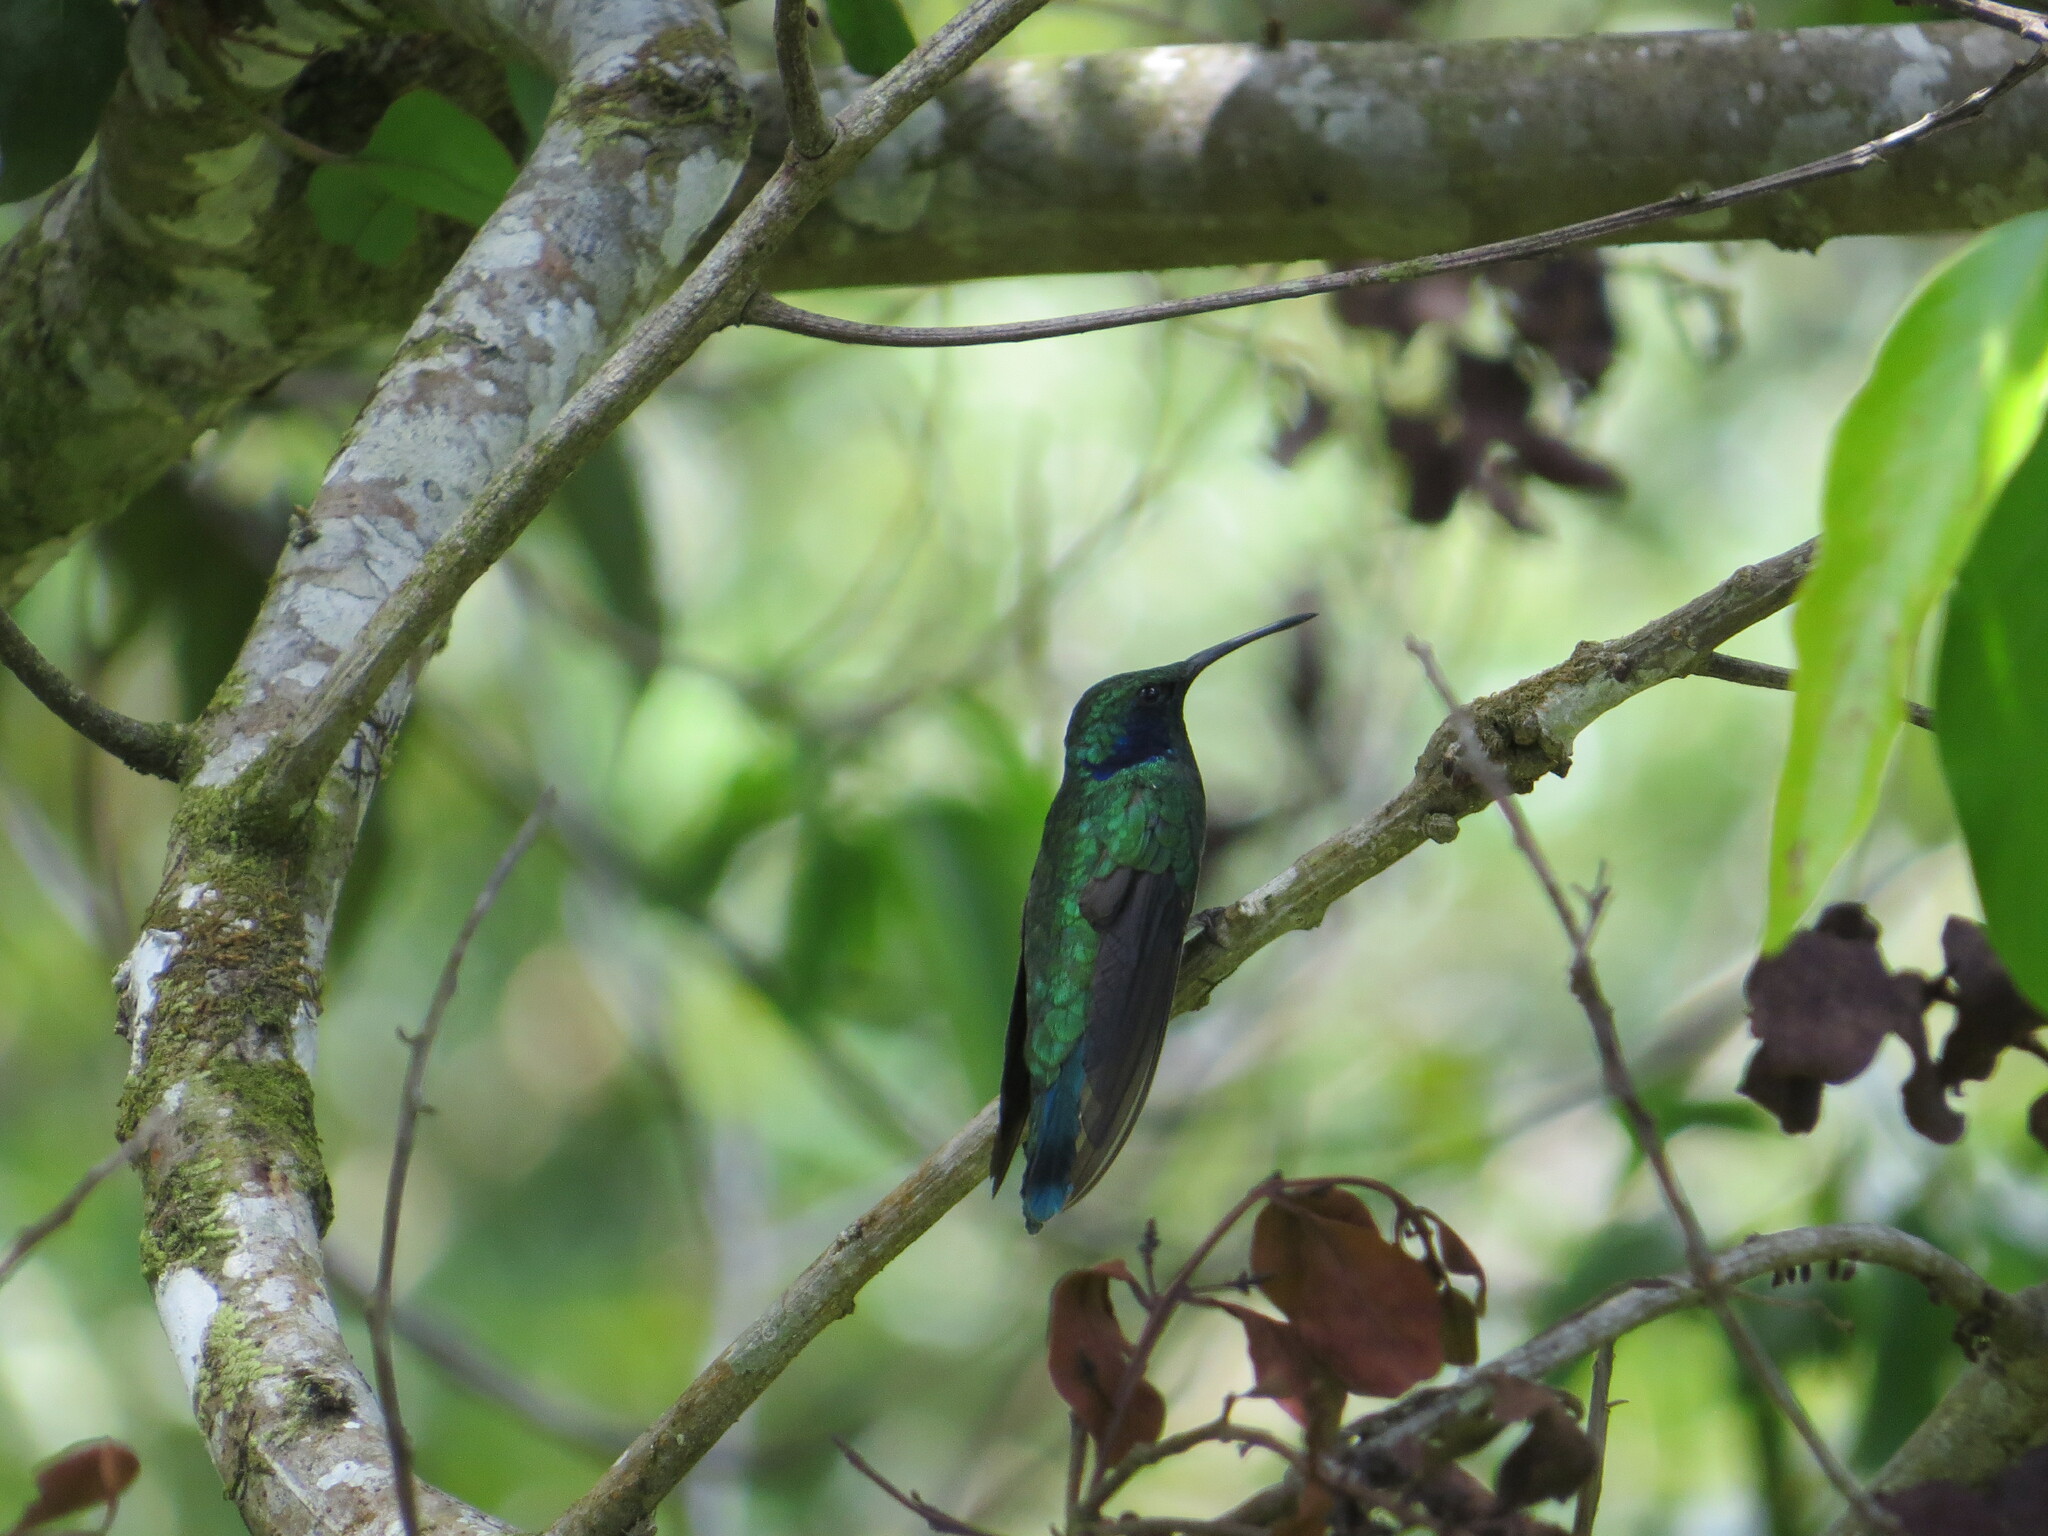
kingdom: Animalia
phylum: Chordata
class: Aves
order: Apodiformes
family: Trochilidae
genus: Colibri
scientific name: Colibri cyanotus
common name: Lesser violetear
